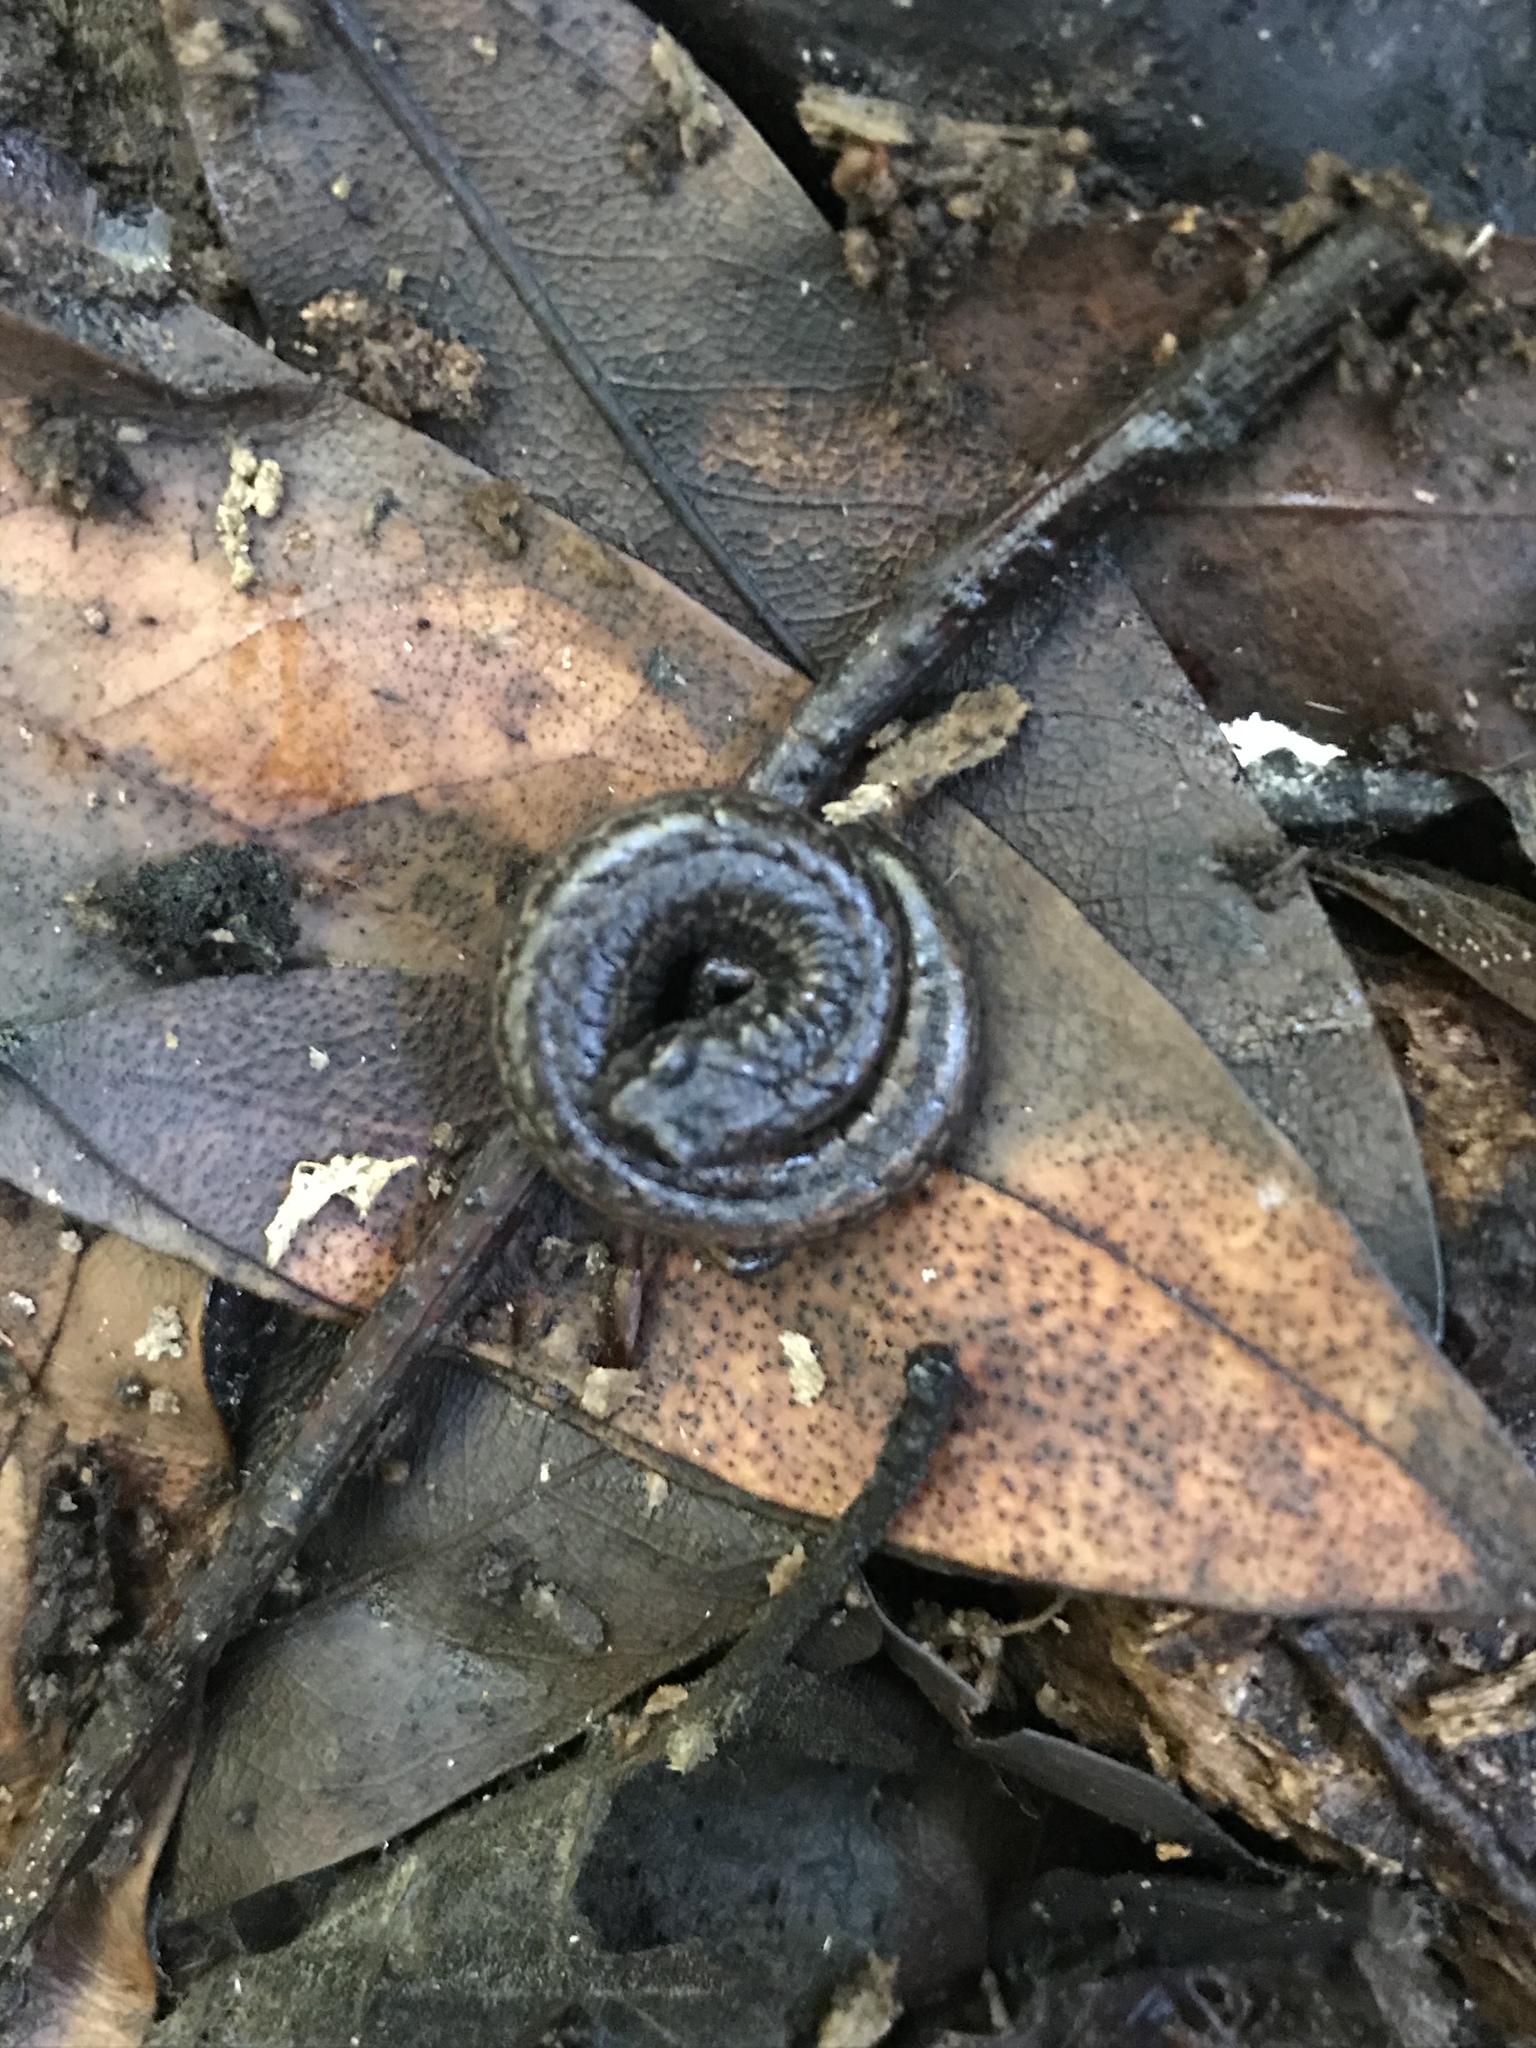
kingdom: Animalia
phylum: Chordata
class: Amphibia
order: Caudata
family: Plethodontidae
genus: Batrachoseps
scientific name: Batrachoseps attenuatus
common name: California slender salamander
